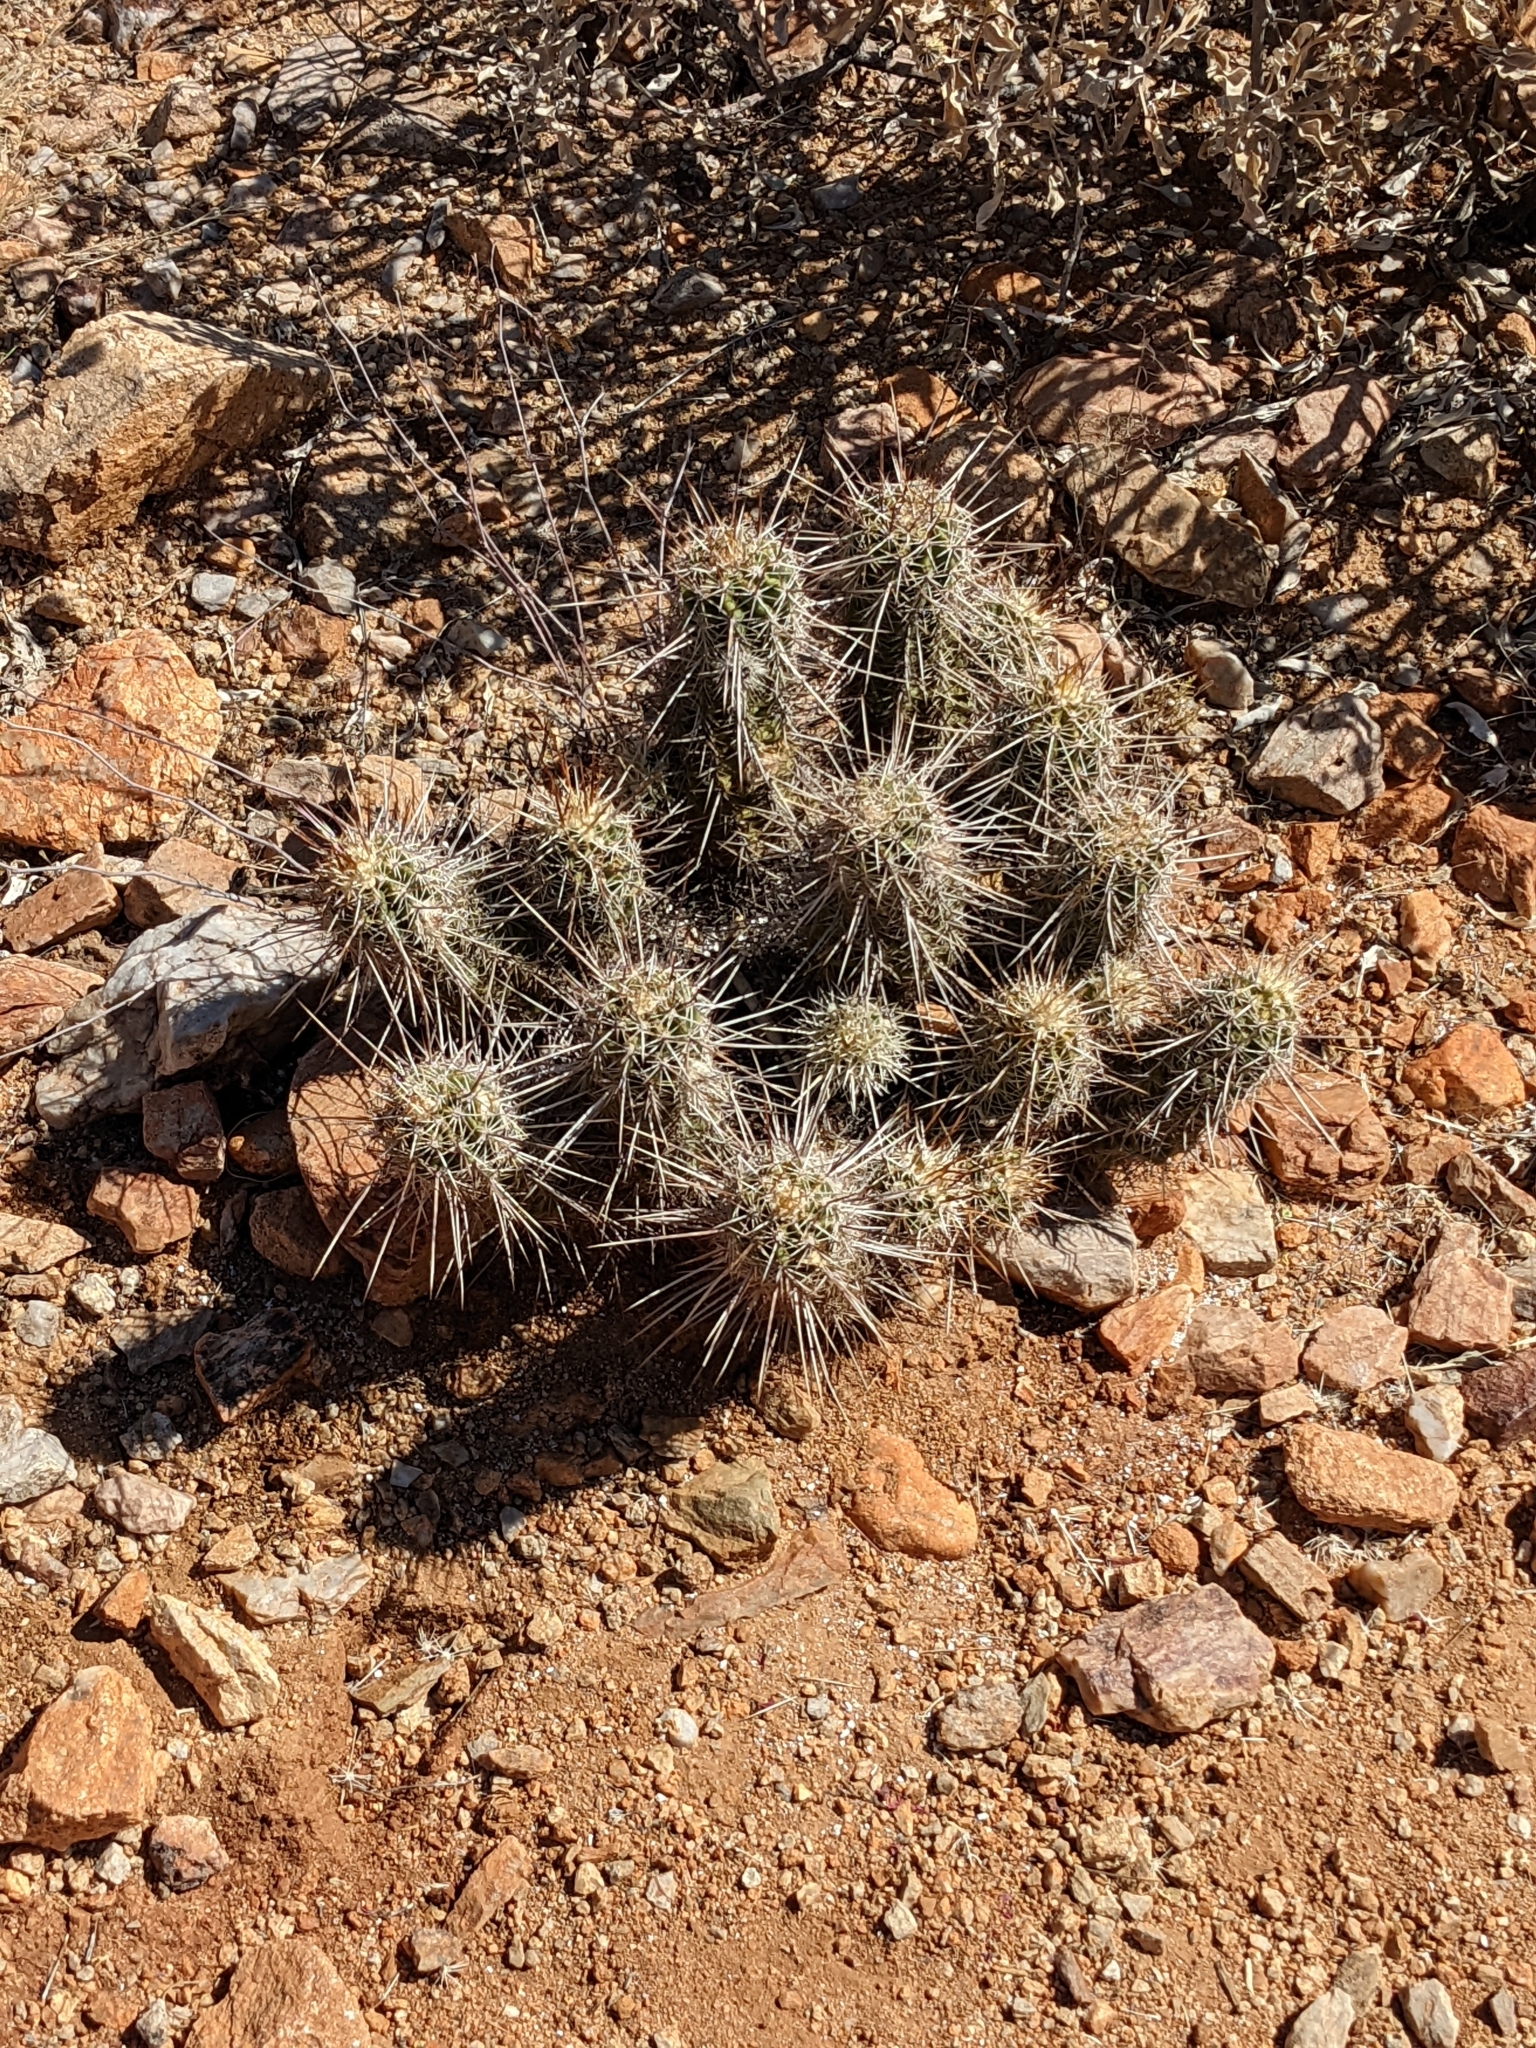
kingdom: Plantae
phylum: Tracheophyta
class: Magnoliopsida
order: Caryophyllales
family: Cactaceae
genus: Echinocereus
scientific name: Echinocereus fasciculatus
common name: Bundle hedgehog
